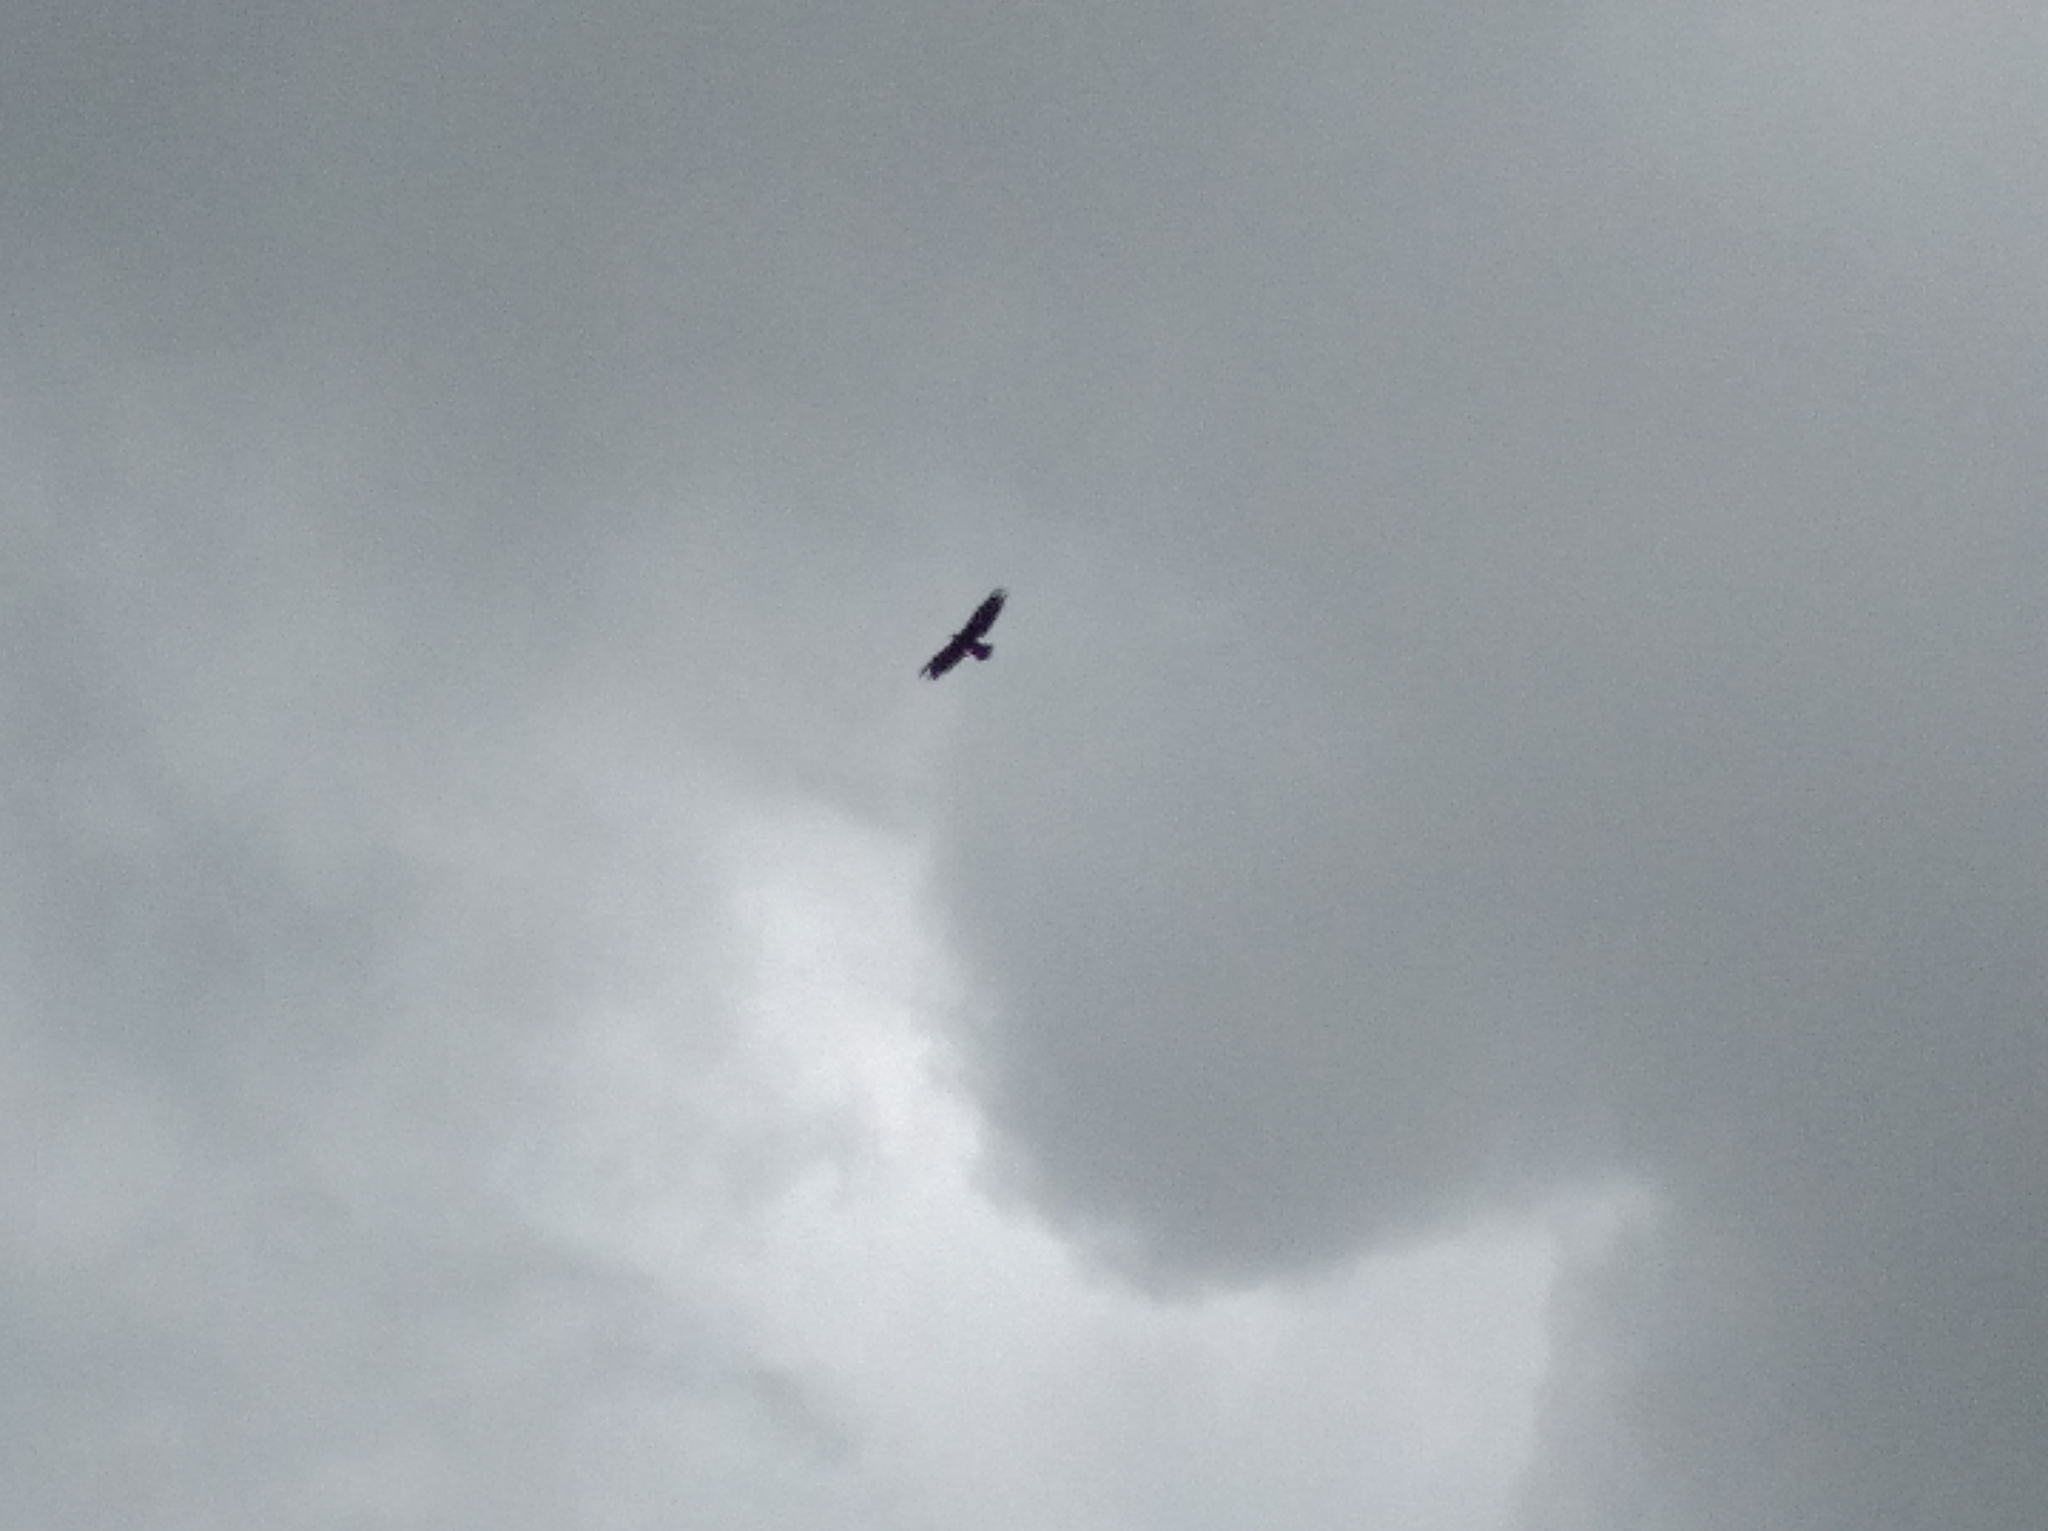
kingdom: Animalia
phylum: Chordata
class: Aves
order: Accipitriformes
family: Accipitridae
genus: Aquila
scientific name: Aquila chrysaetos
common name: Golden eagle
